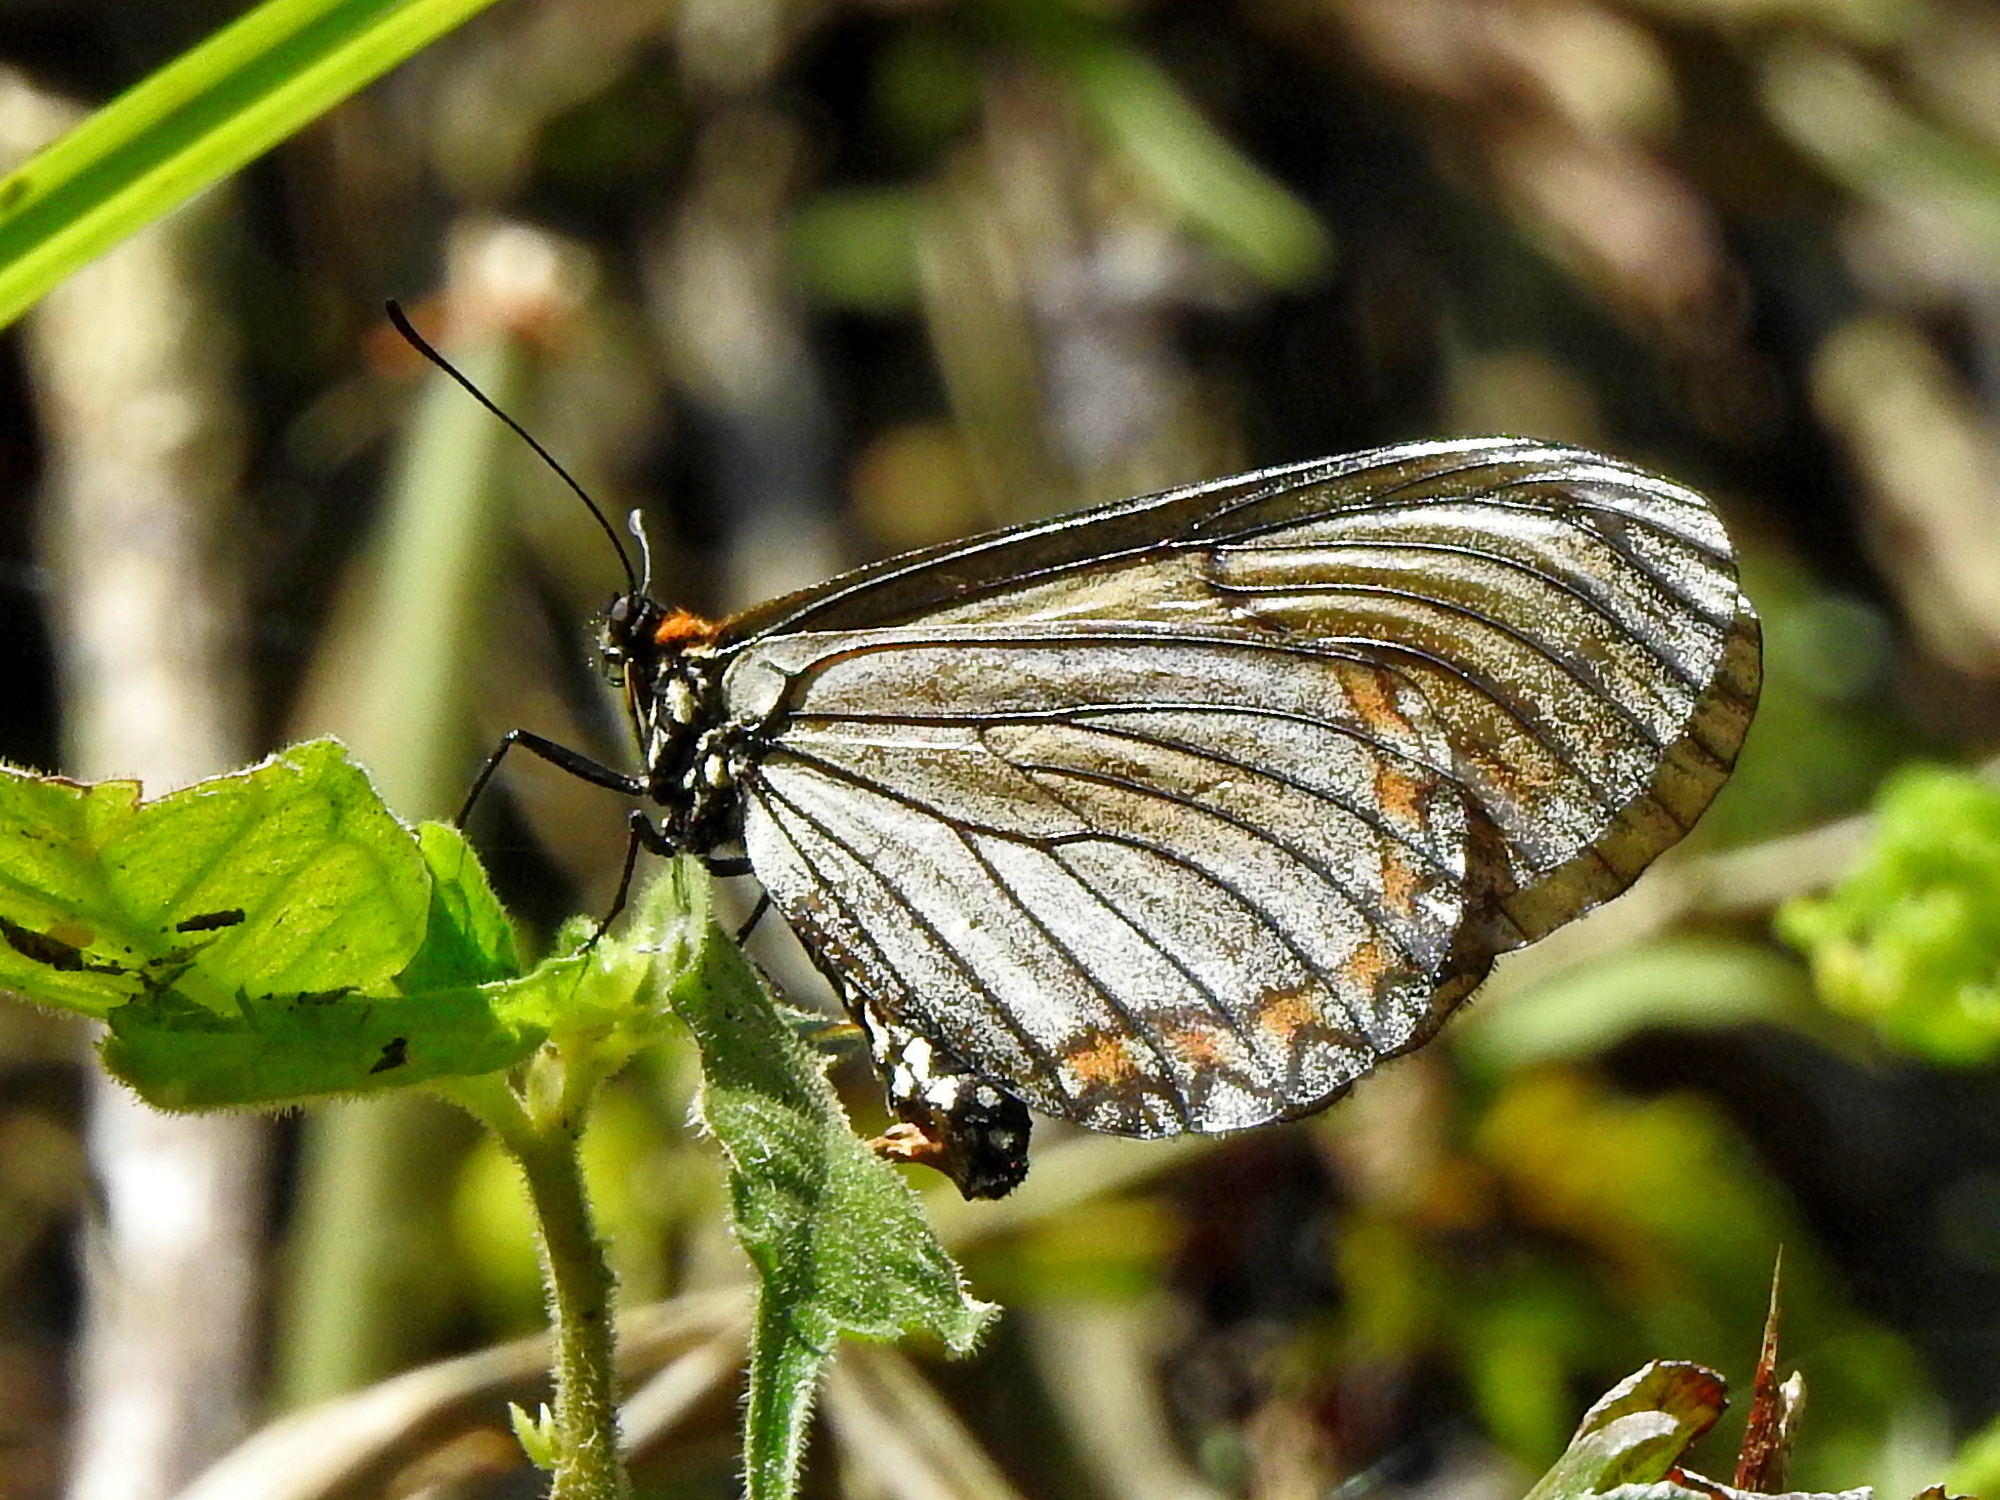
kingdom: Animalia
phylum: Arthropoda
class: Insecta
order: Lepidoptera
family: Nymphalidae
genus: Acraea
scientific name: Acraea Telchinia issoria
